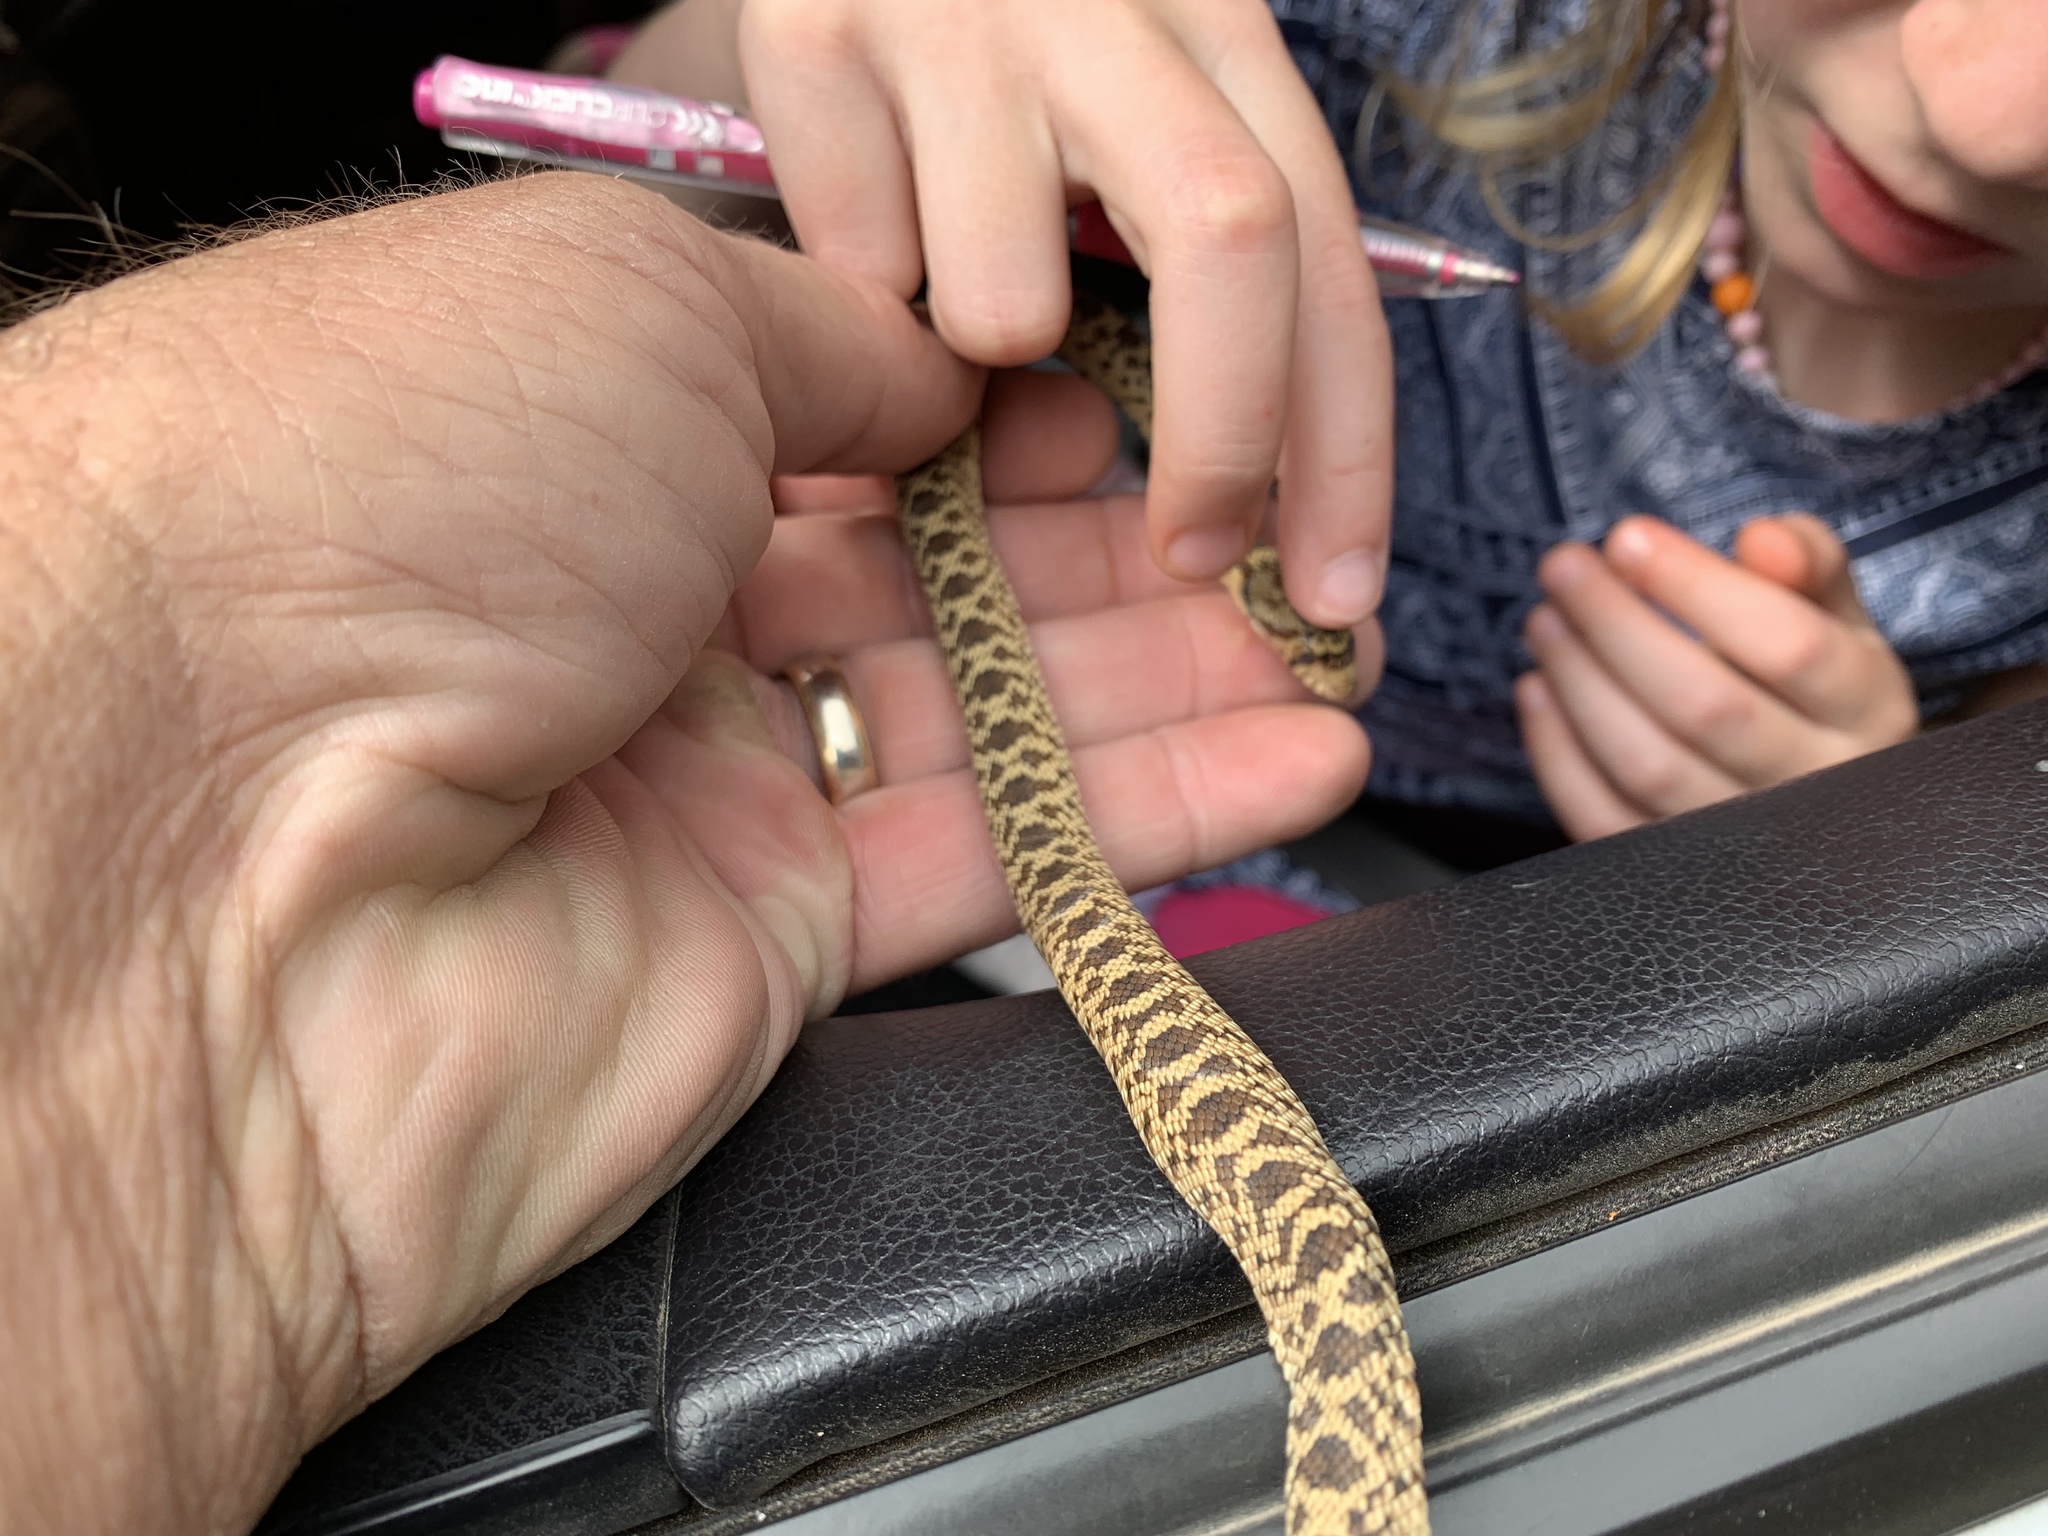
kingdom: Animalia
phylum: Chordata
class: Squamata
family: Colubridae
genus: Pituophis
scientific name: Pituophis catenifer
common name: Gopher snake
